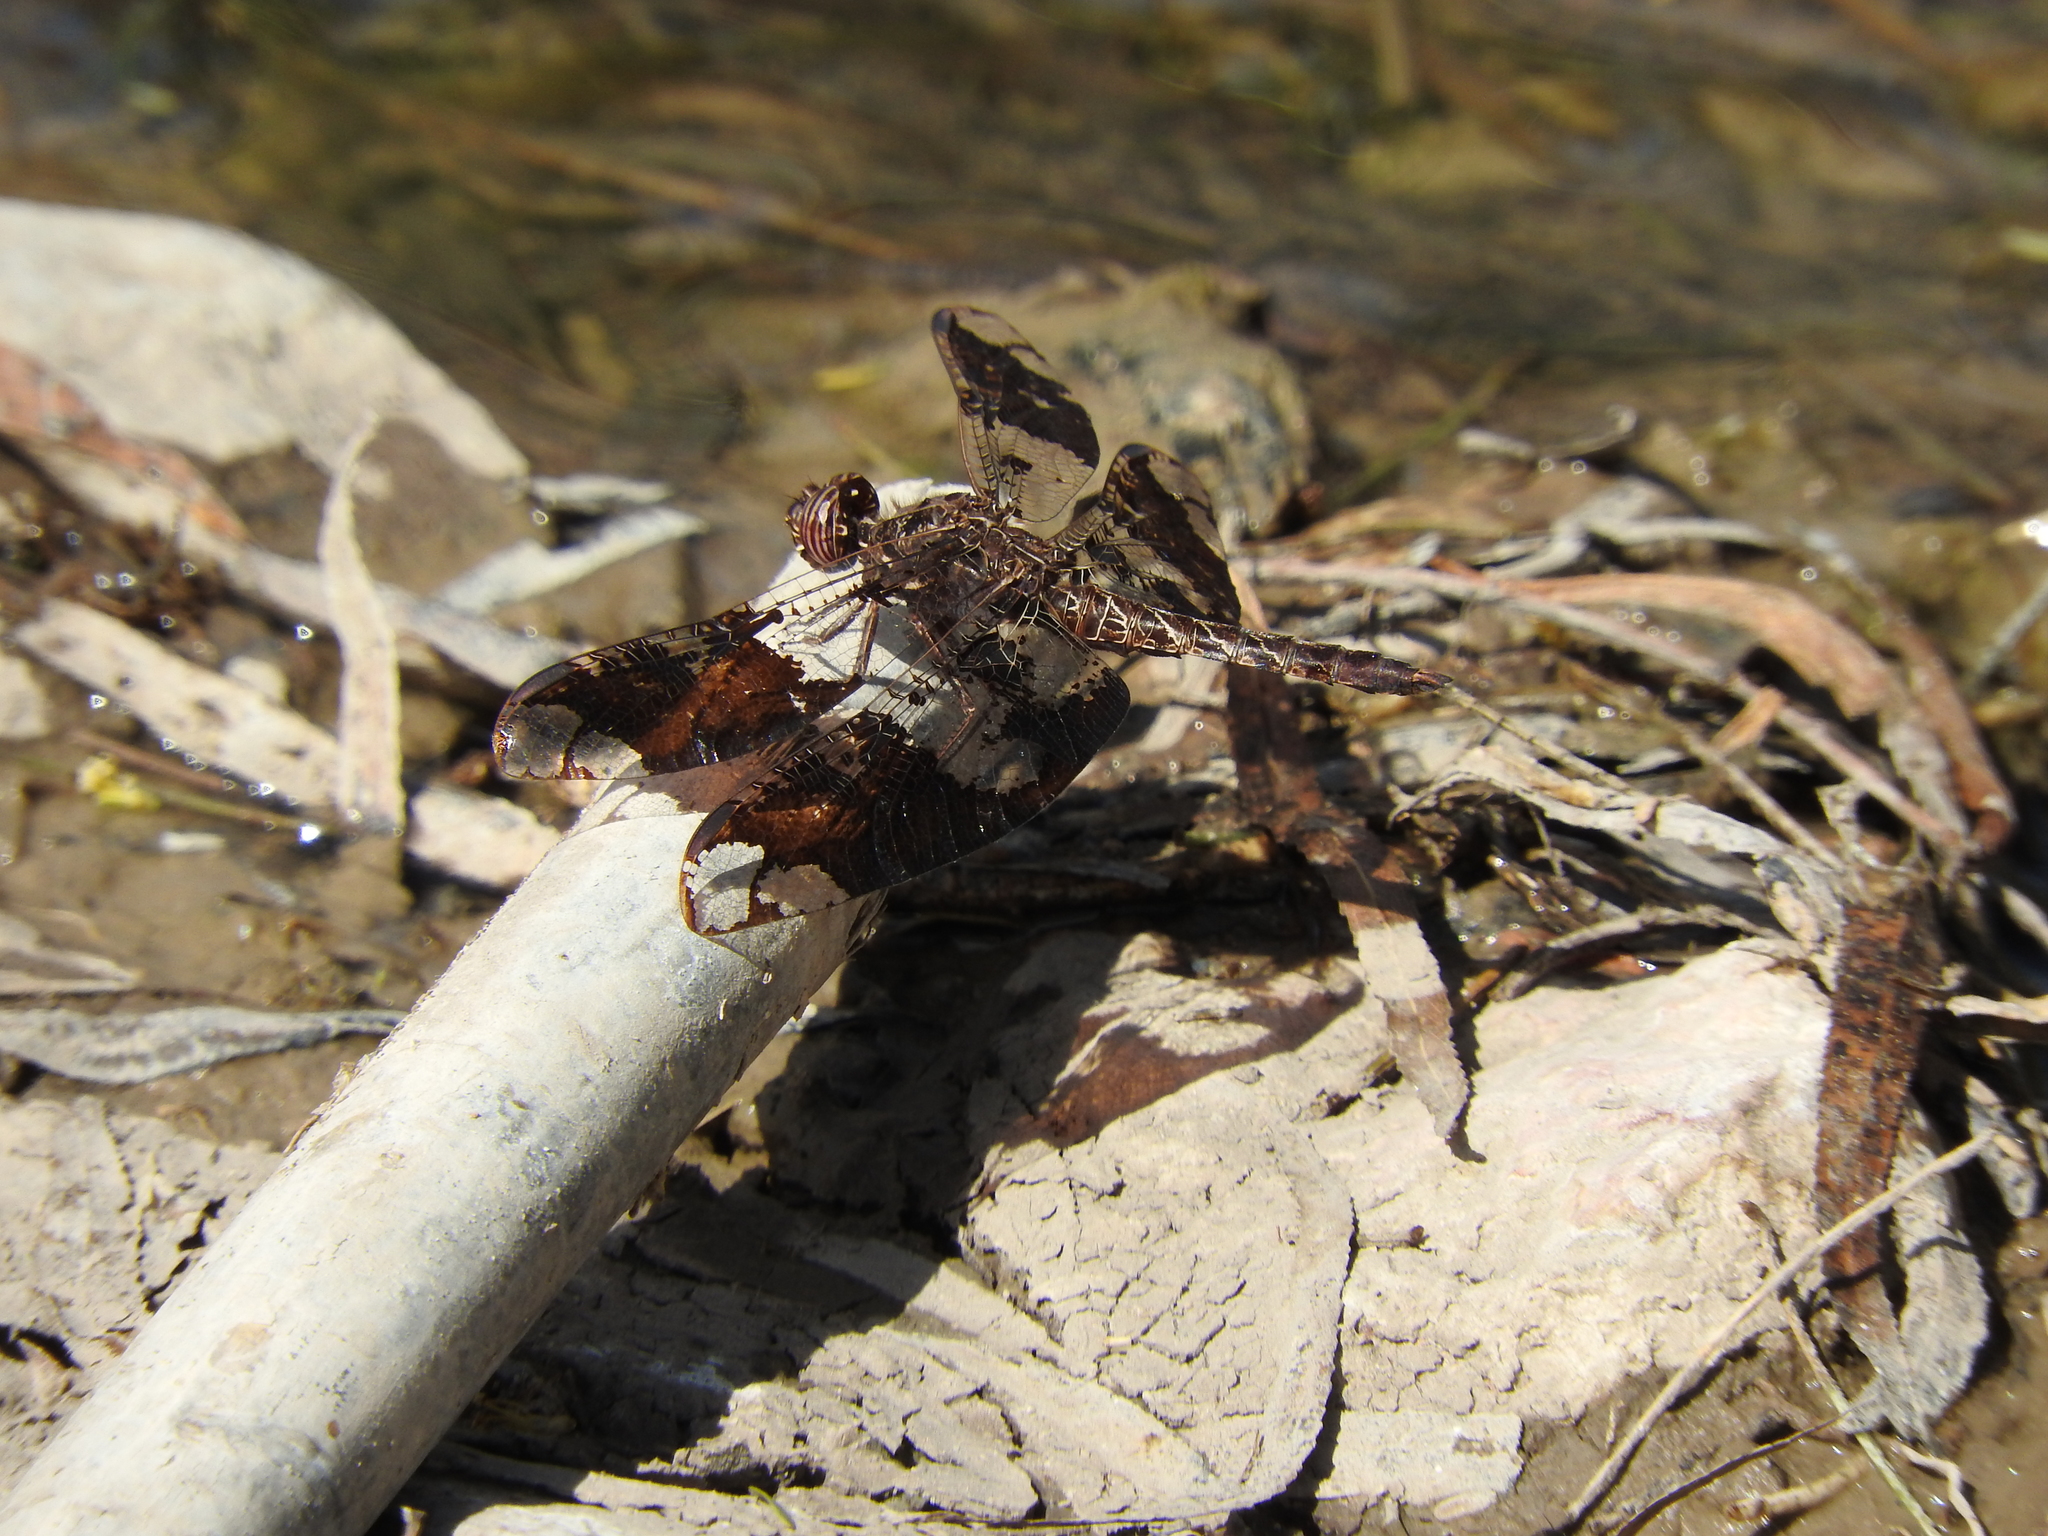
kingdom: Animalia
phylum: Arthropoda
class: Insecta
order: Odonata
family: Libellulidae
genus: Pseudoleon
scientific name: Pseudoleon superbus
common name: Filigree skimmer
